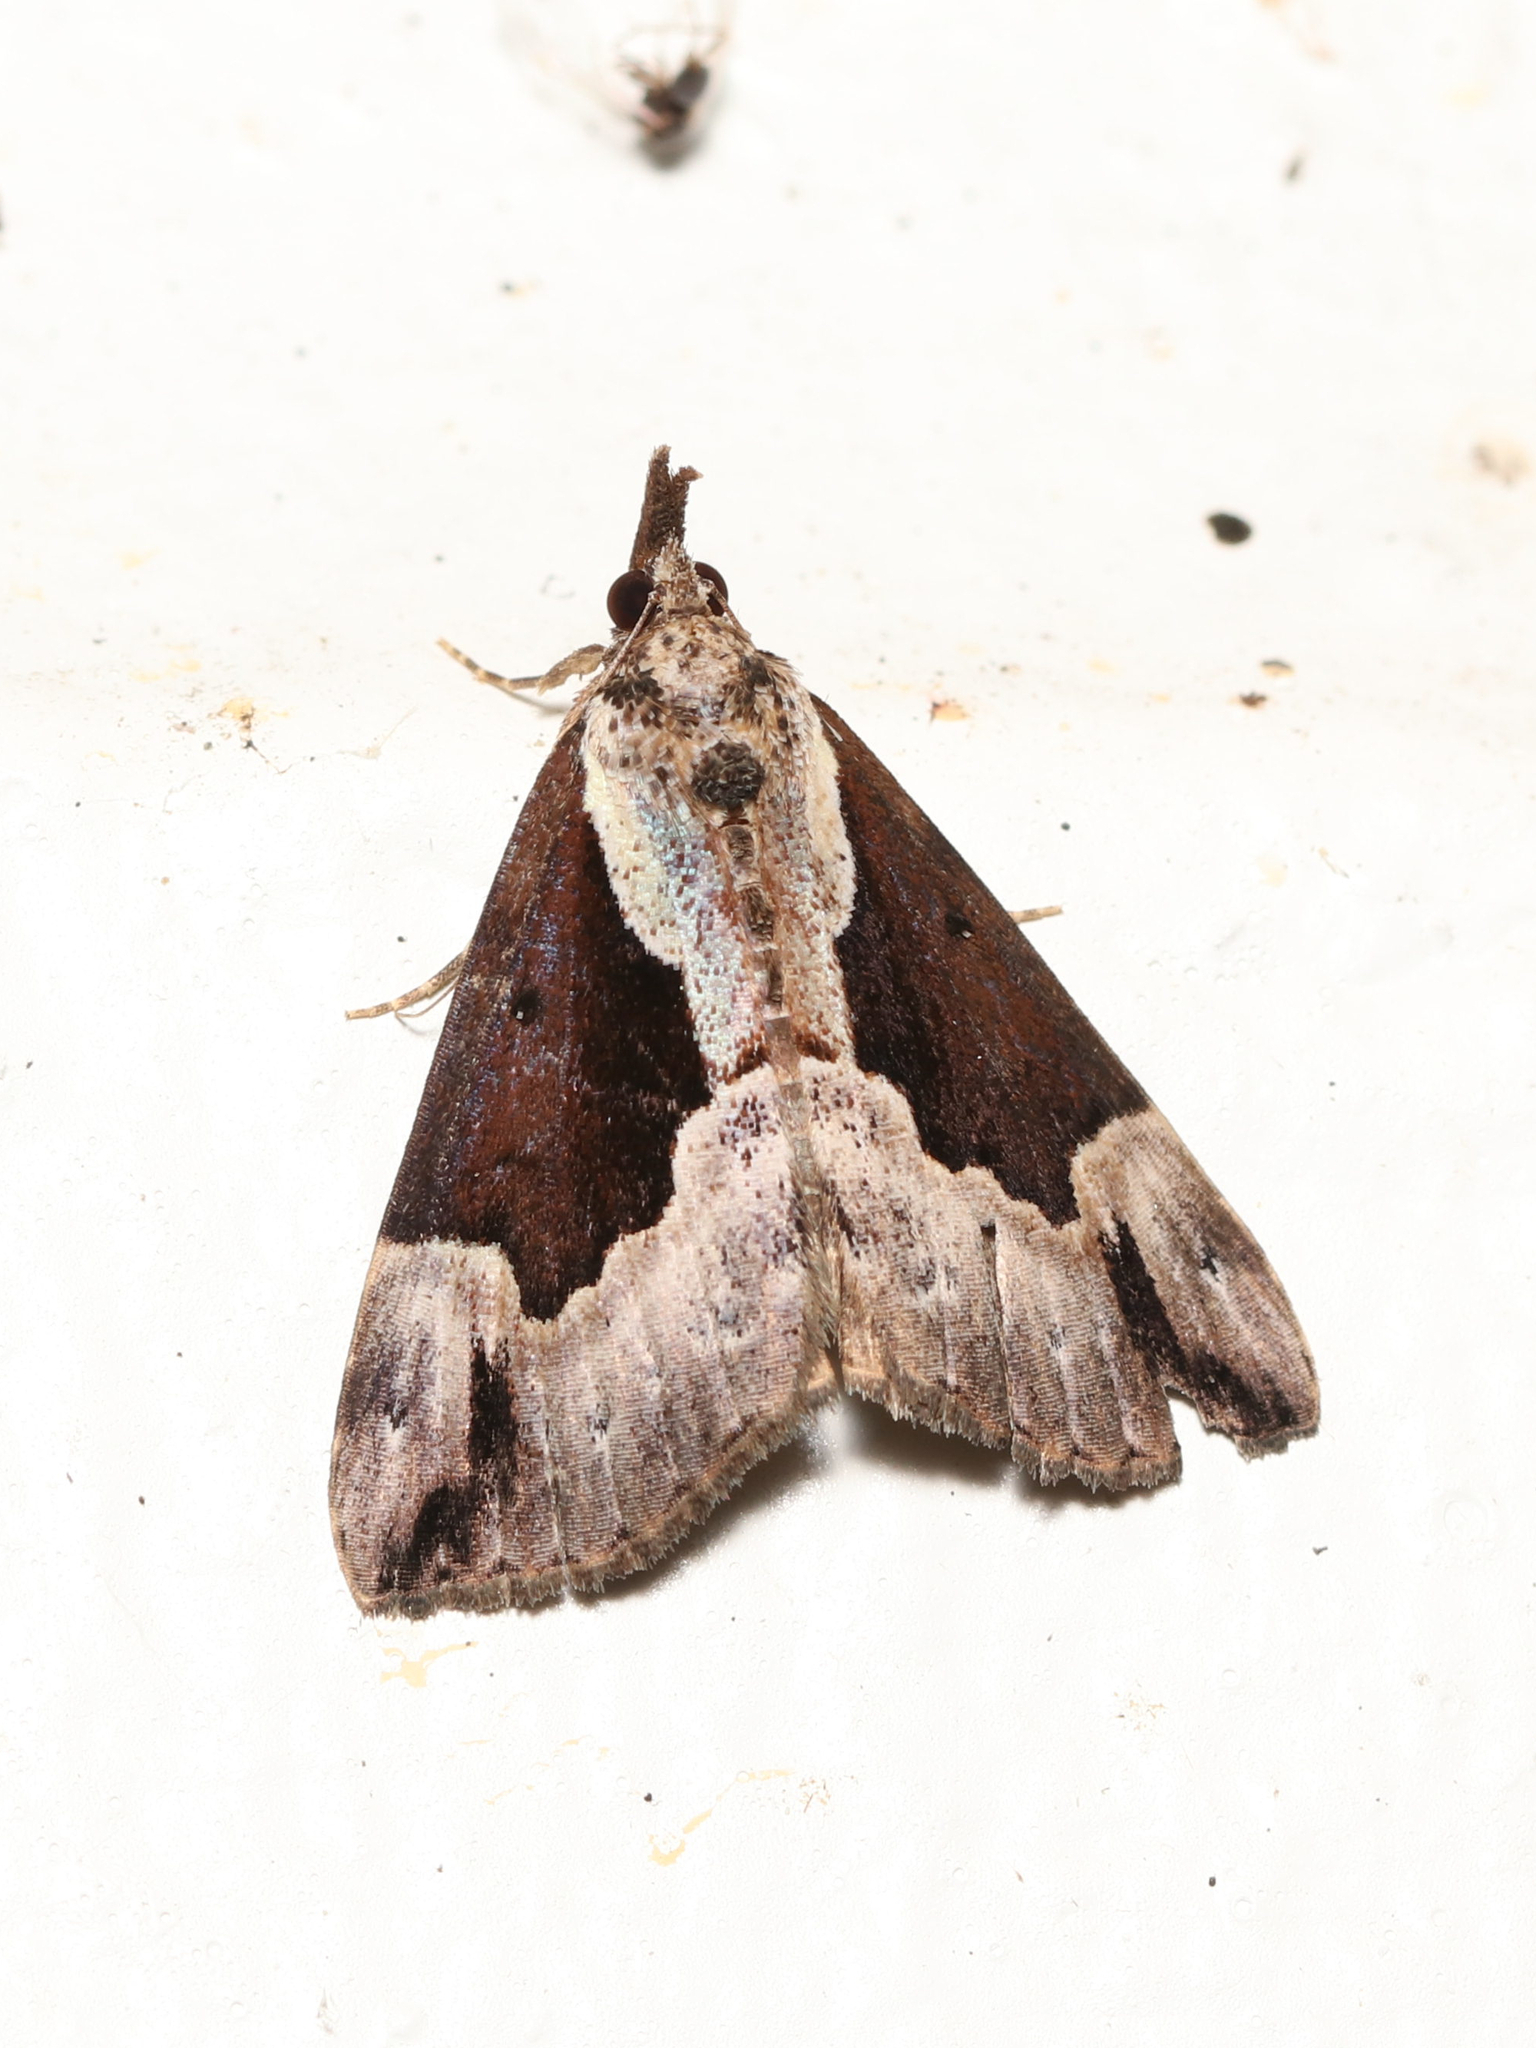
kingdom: Animalia
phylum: Arthropoda
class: Insecta
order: Lepidoptera
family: Erebidae
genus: Hypena
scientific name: Hypena baltimoralis
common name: Baltimore snout
